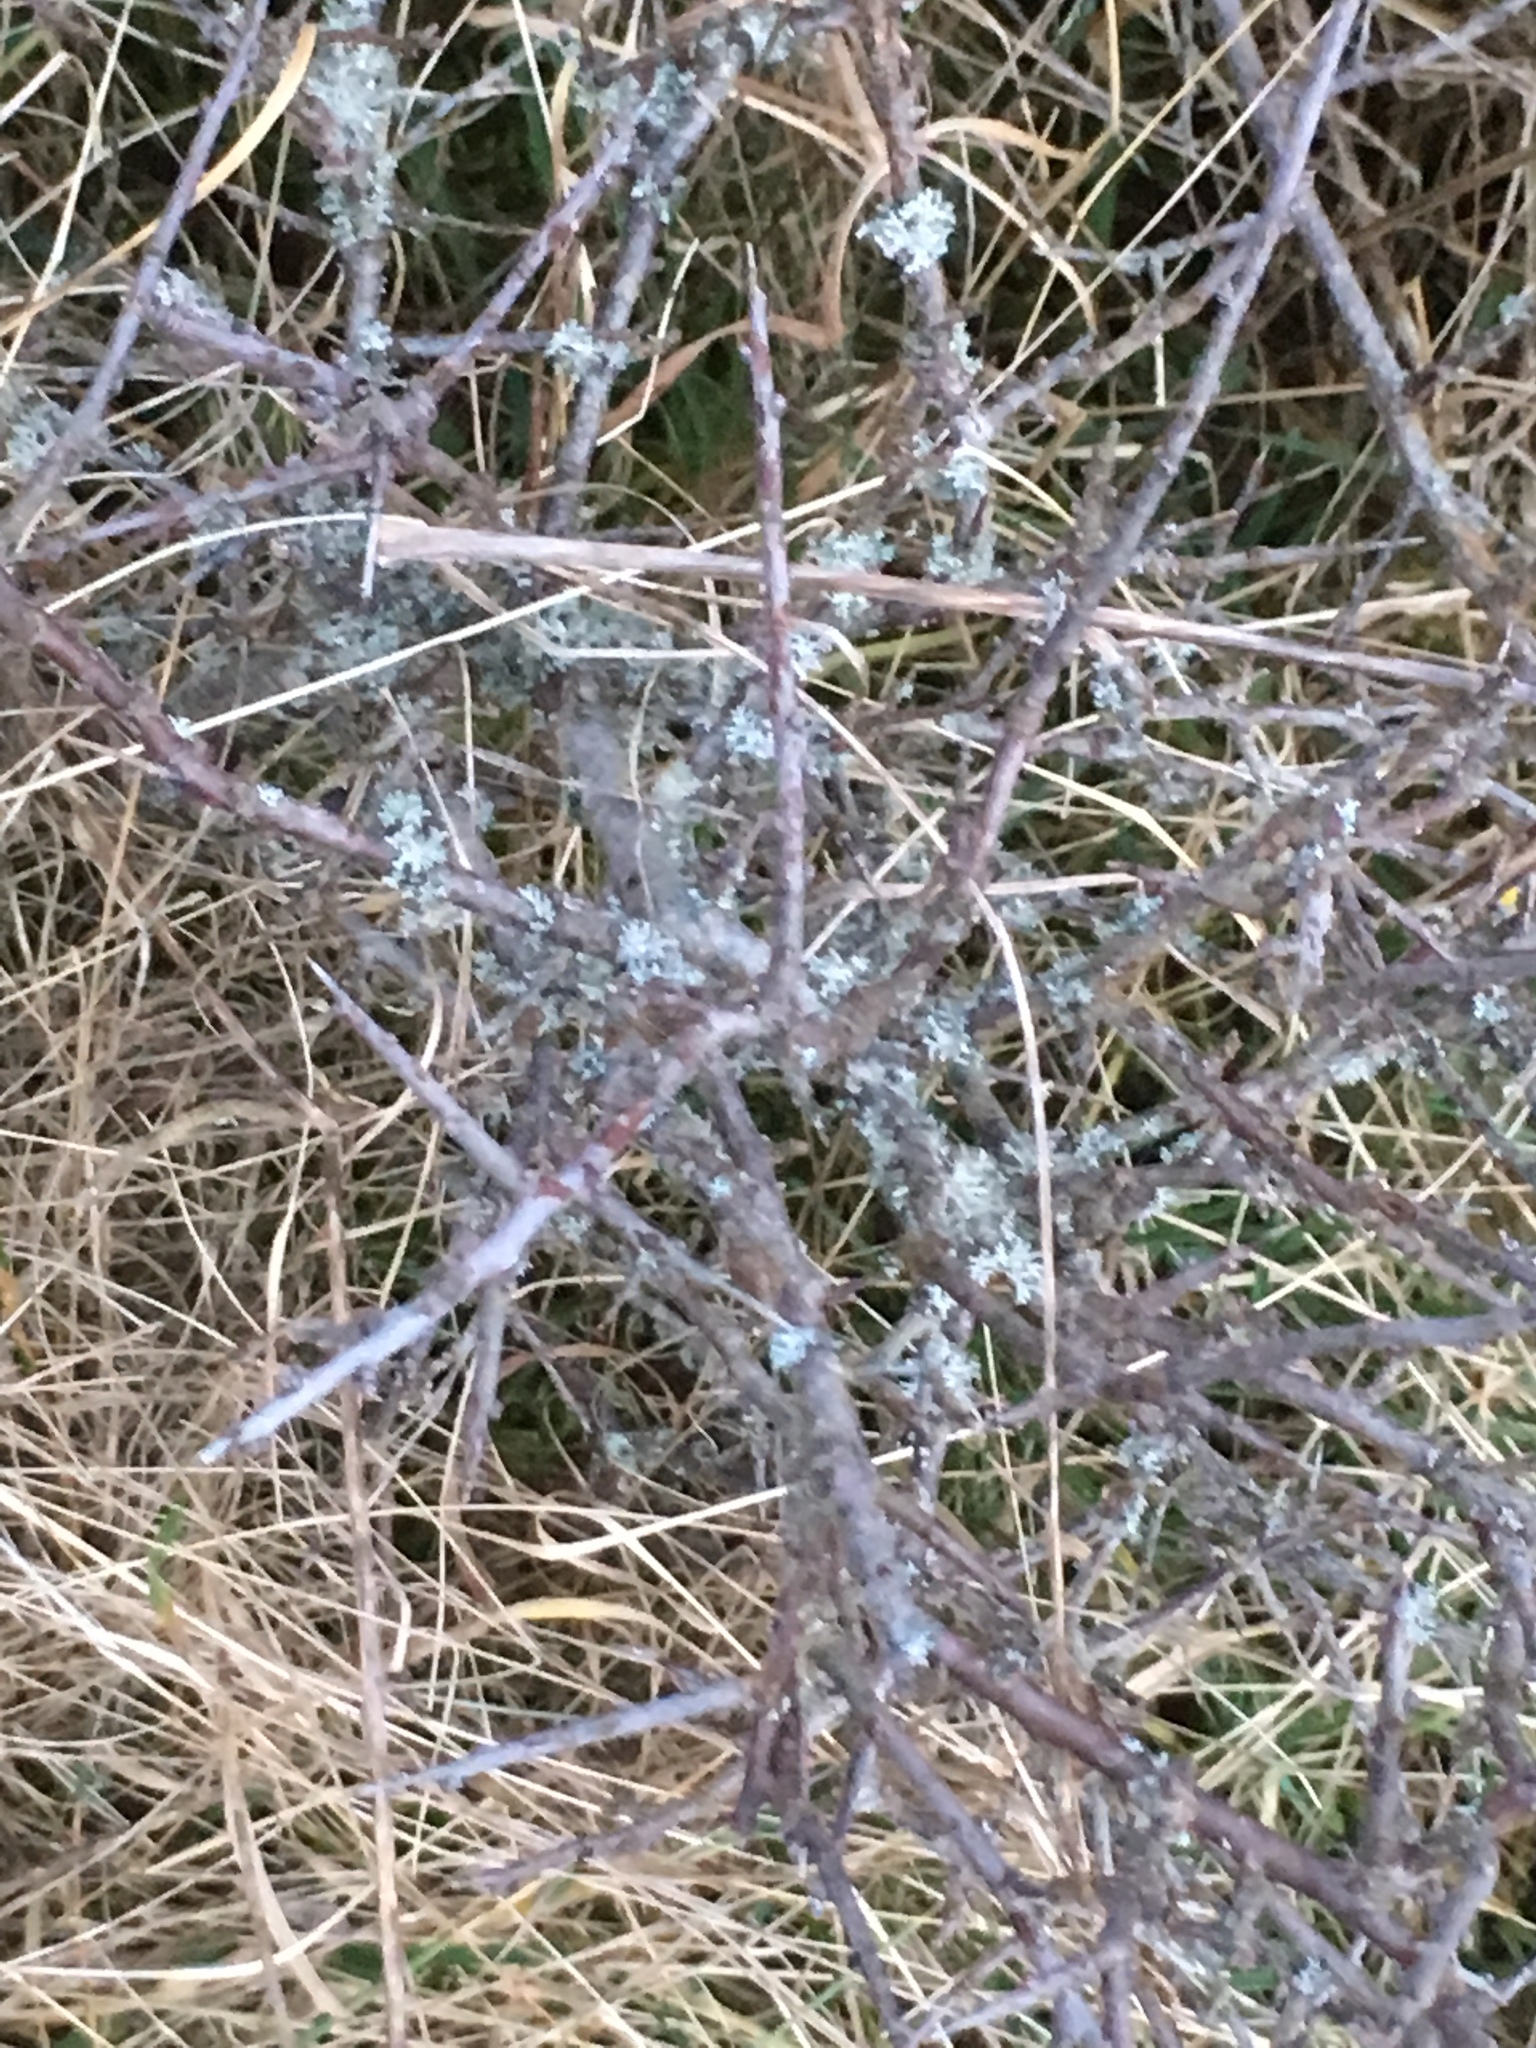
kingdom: Plantae
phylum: Tracheophyta
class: Magnoliopsida
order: Rosales
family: Rosaceae
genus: Prunus
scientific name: Prunus spinosa
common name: Blackthorn
